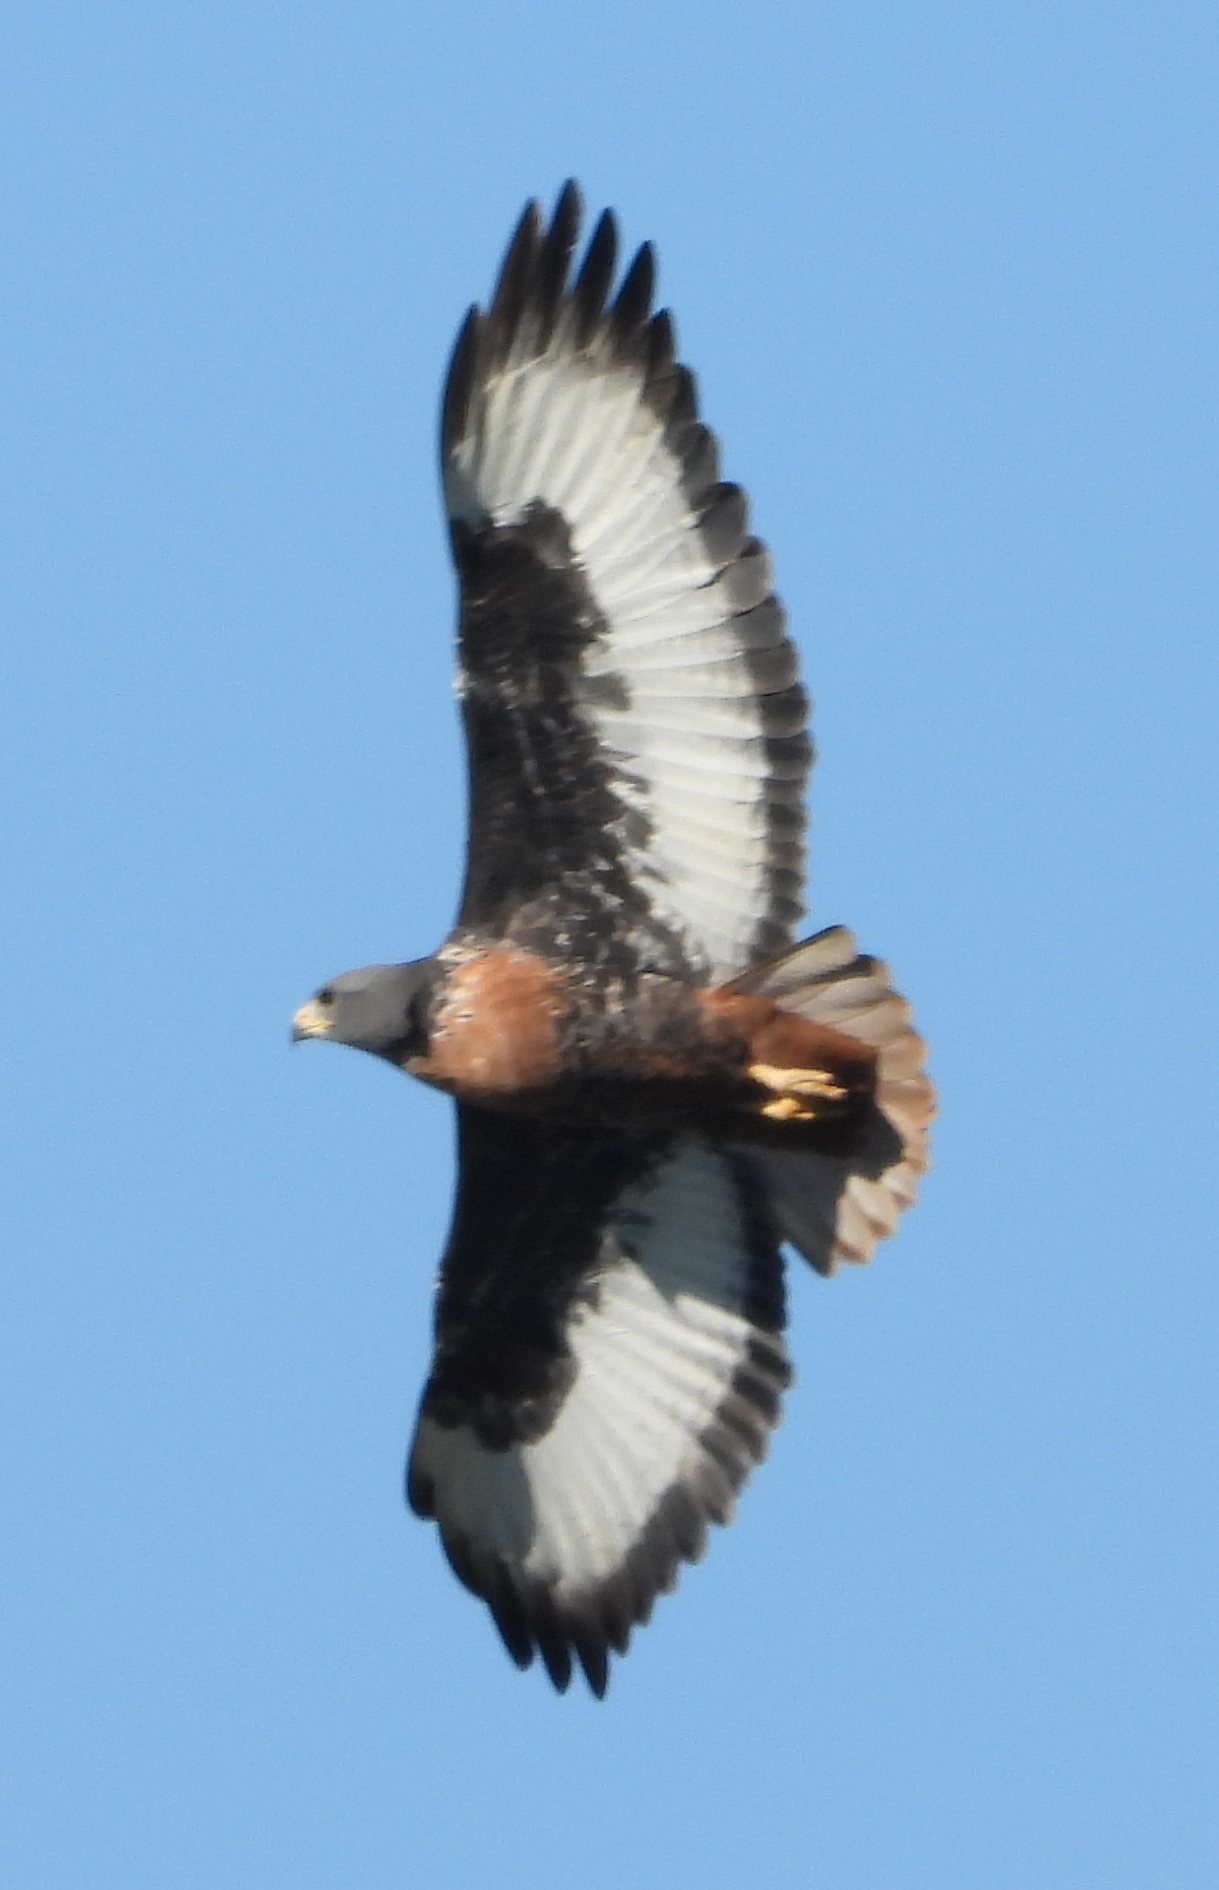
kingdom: Animalia
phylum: Chordata
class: Aves
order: Accipitriformes
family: Accipitridae
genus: Buteo
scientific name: Buteo rufofuscus
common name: Jackal buzzard
